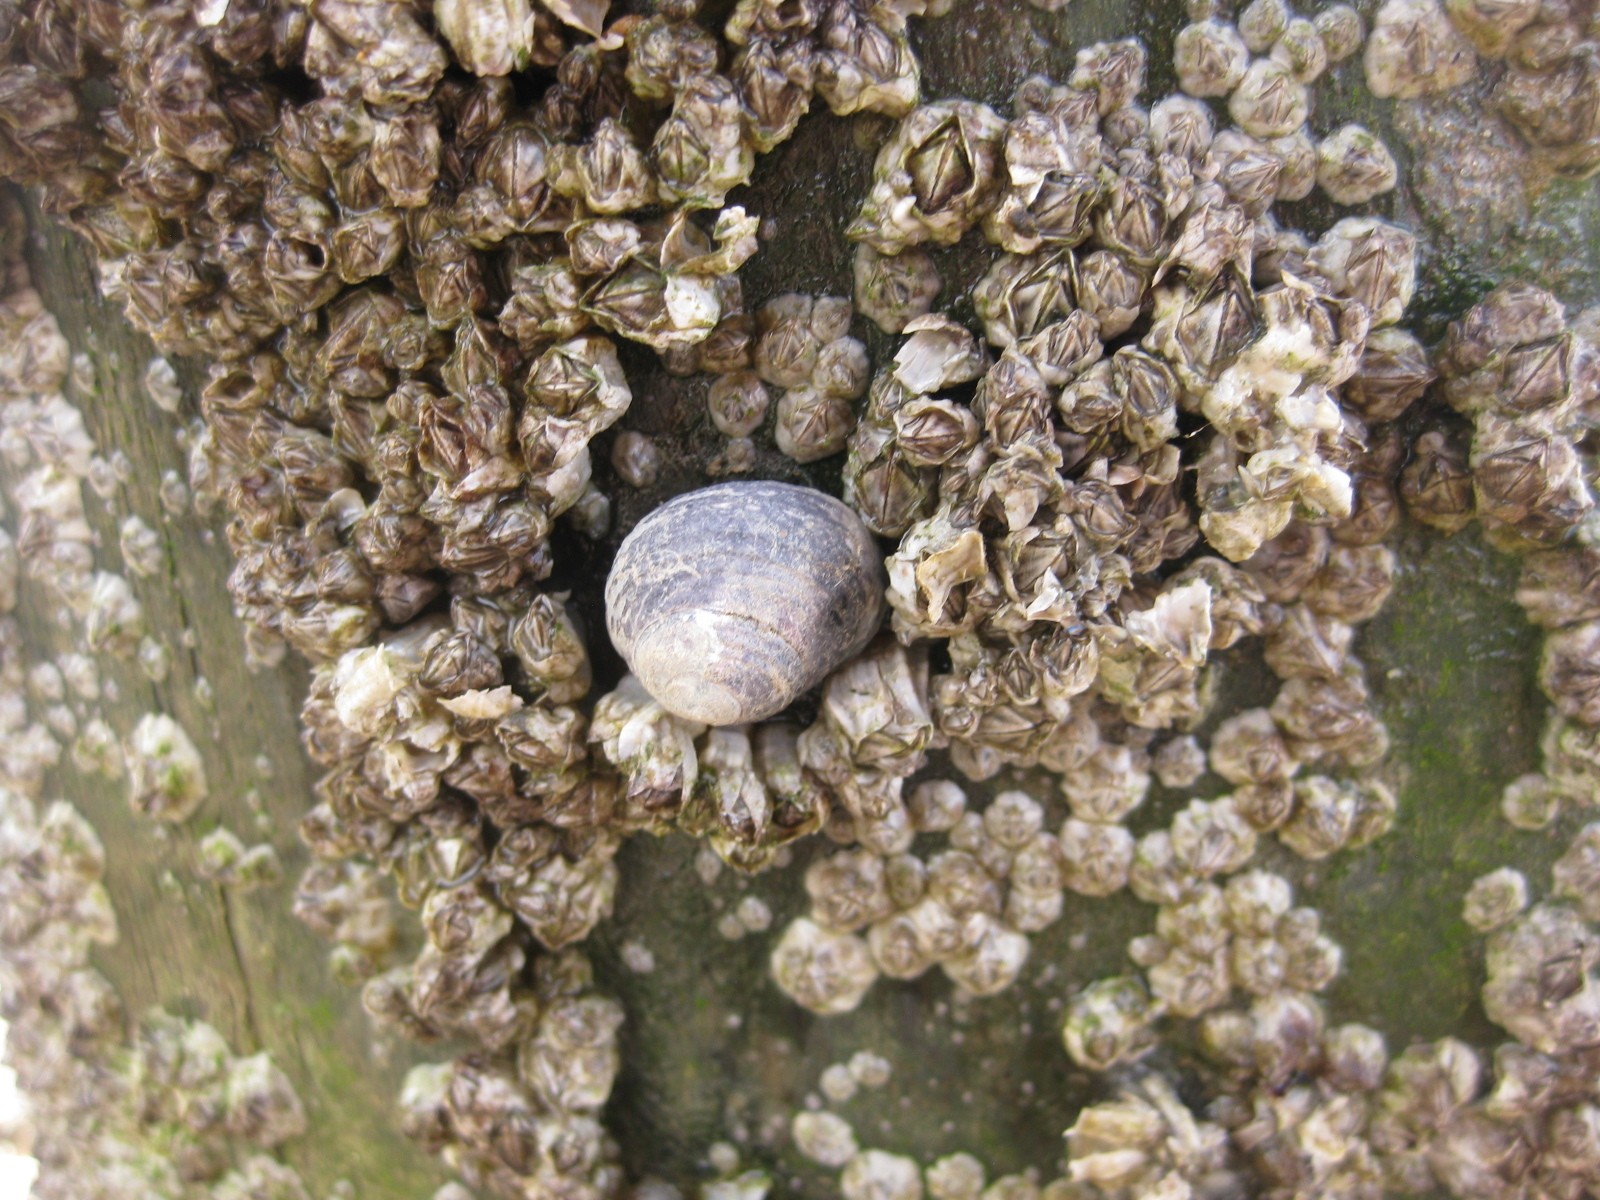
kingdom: Animalia
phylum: Mollusca
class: Gastropoda
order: Trochida
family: Trochidae
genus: Diloma
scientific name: Diloma subrostratum
